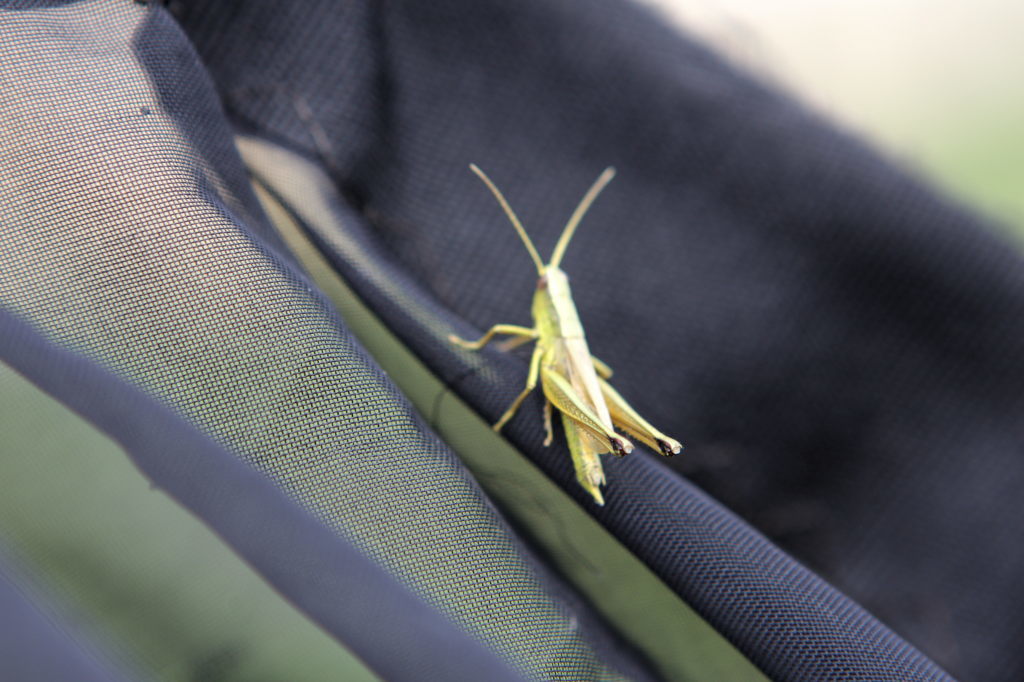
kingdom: Animalia
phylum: Arthropoda
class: Insecta
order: Orthoptera
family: Acrididae
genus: Chrysochraon
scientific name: Chrysochraon dispar
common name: Large gold grasshopper
